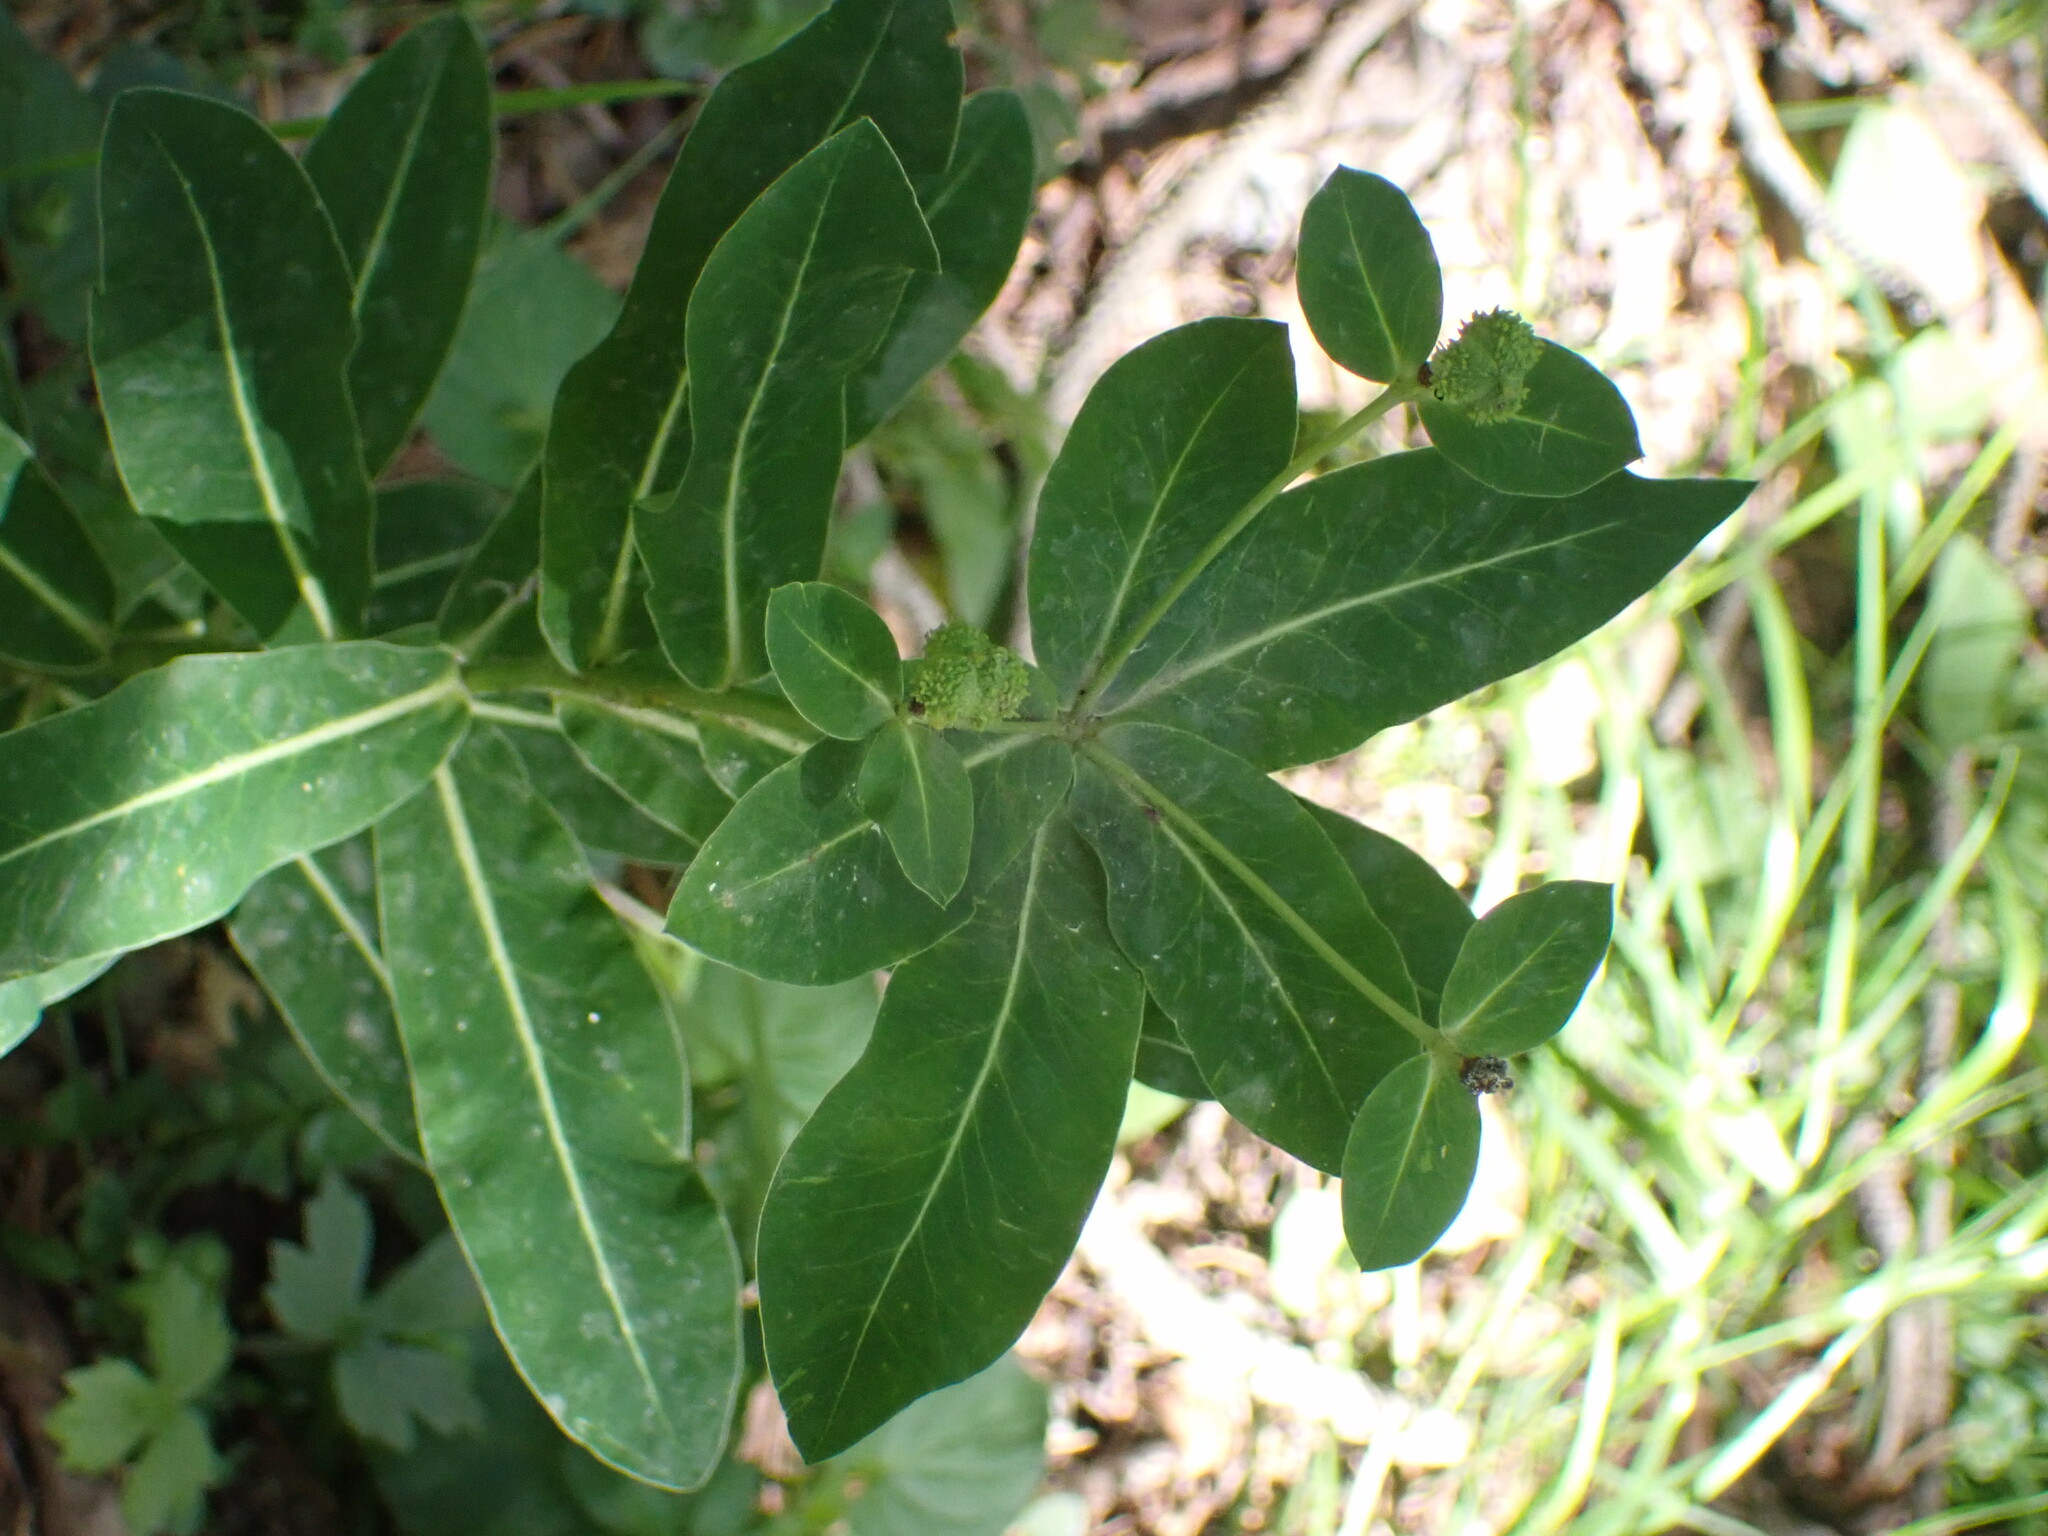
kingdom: Plantae
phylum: Tracheophyta
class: Magnoliopsida
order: Malpighiales
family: Euphorbiaceae
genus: Euphorbia
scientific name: Euphorbia hyberna
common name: Irish spurge
